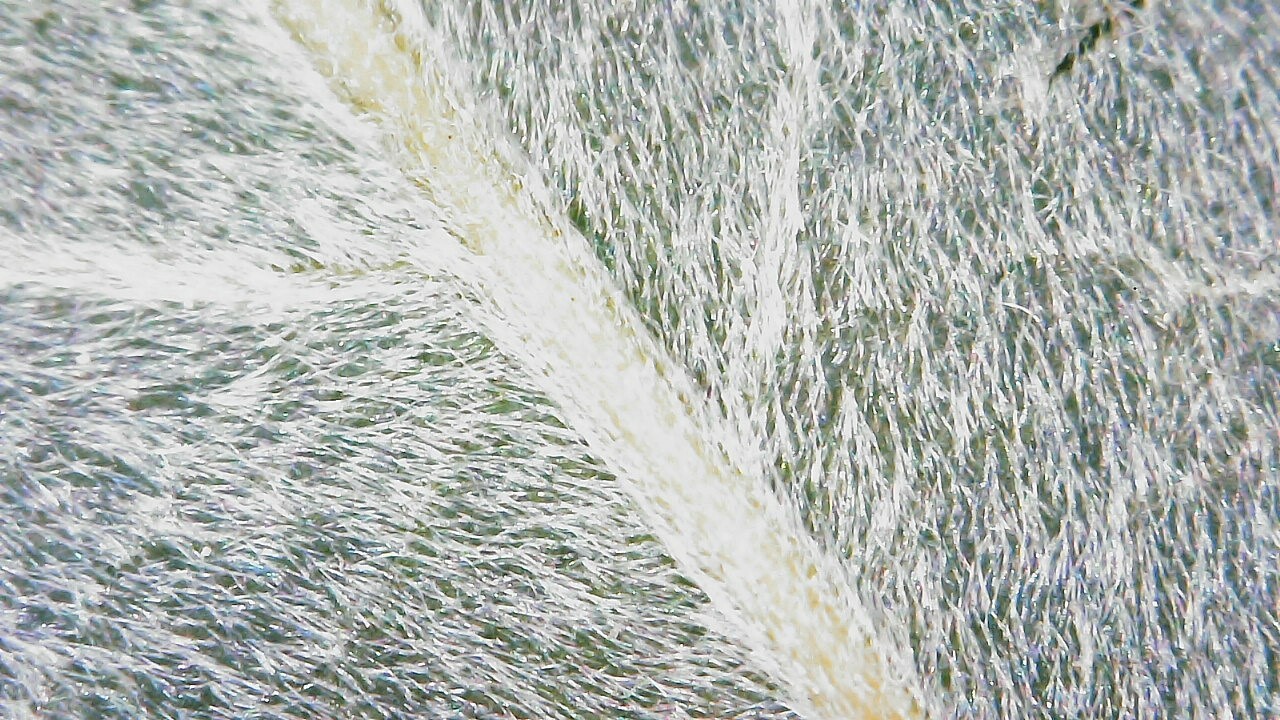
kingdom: Plantae
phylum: Tracheophyta
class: Magnoliopsida
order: Malpighiales
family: Salicaceae
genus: Salix
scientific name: Salix sericea
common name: Silky willow
